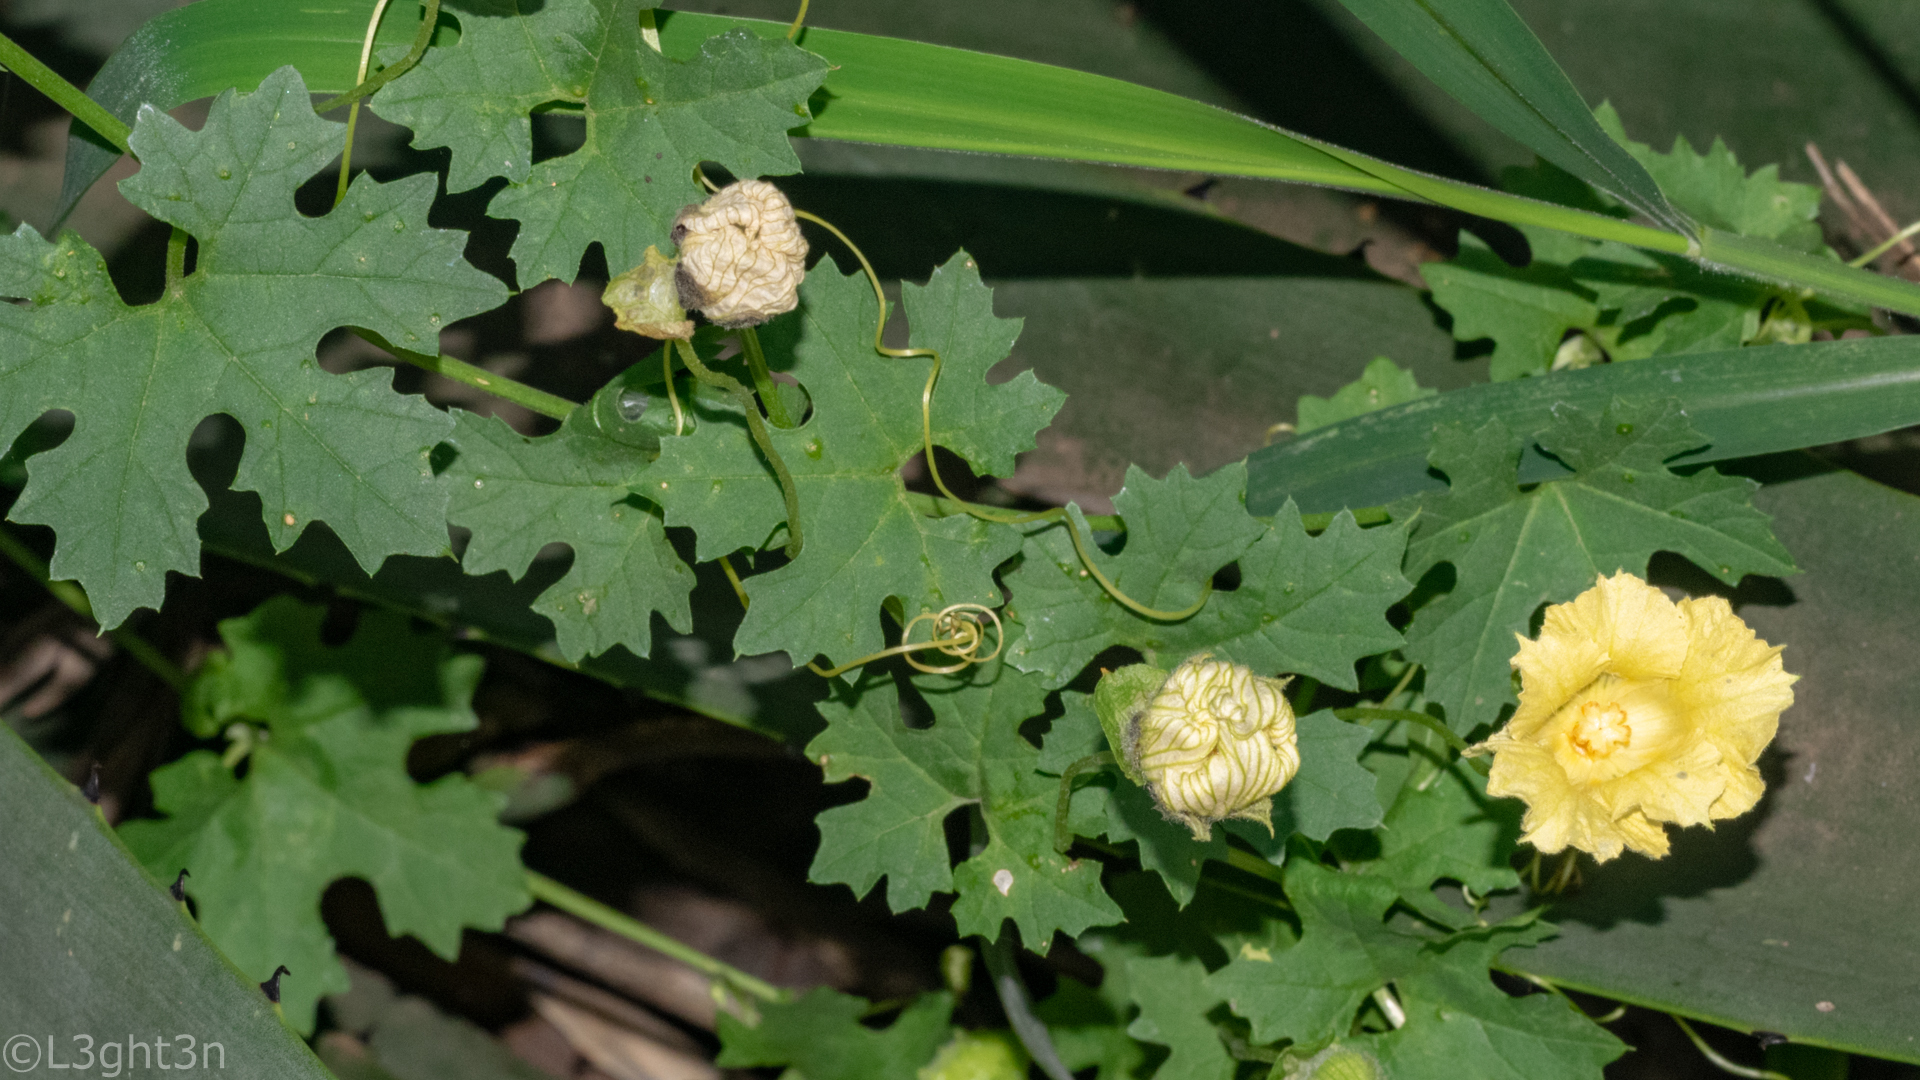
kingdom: Plantae
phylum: Tracheophyta
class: Magnoliopsida
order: Cucurbitales
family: Cucurbitaceae
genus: Momordica
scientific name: Momordica balsamina
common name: Southern balsampear
